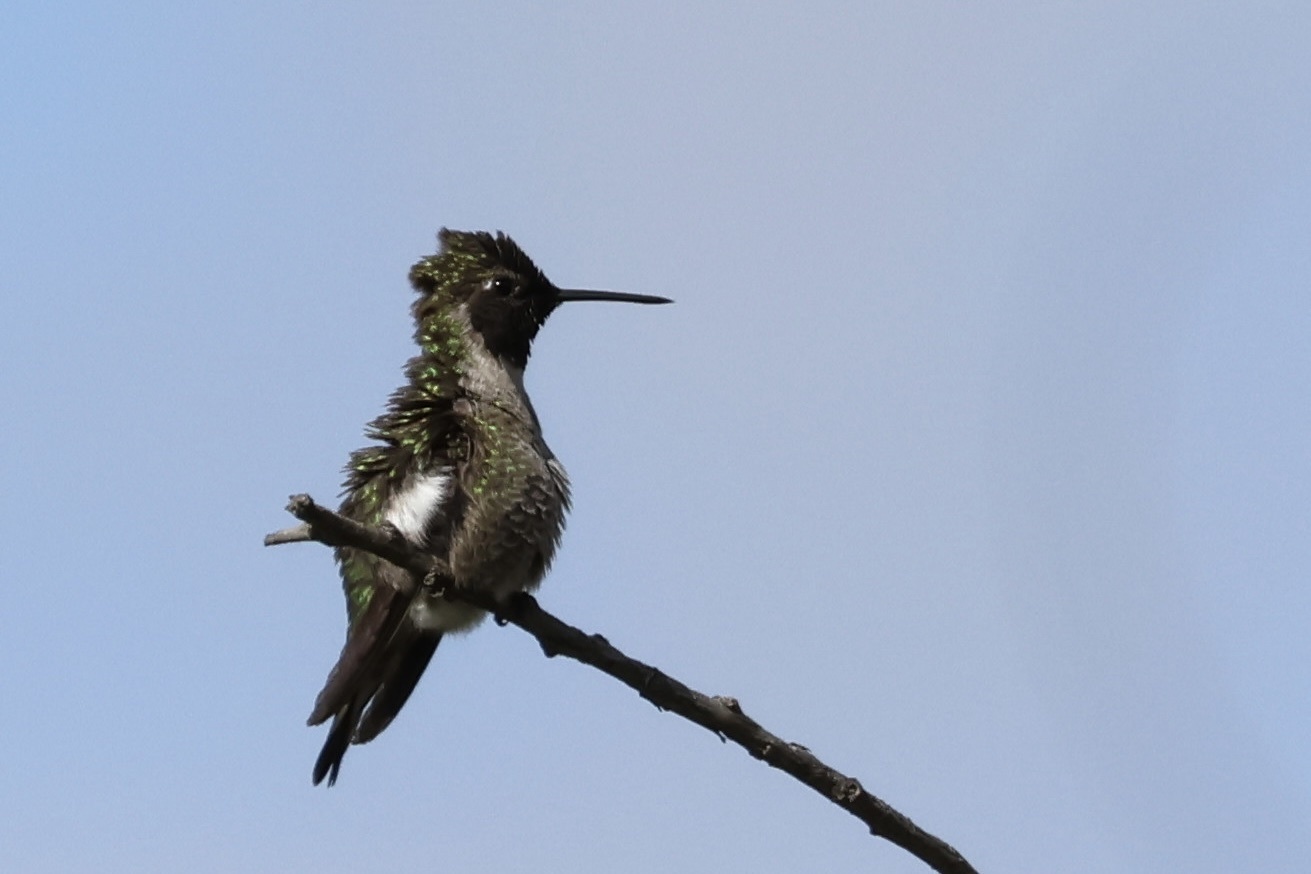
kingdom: Animalia
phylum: Chordata
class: Aves
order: Apodiformes
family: Trochilidae
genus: Calypte
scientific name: Calypte anna
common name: Anna's hummingbird
